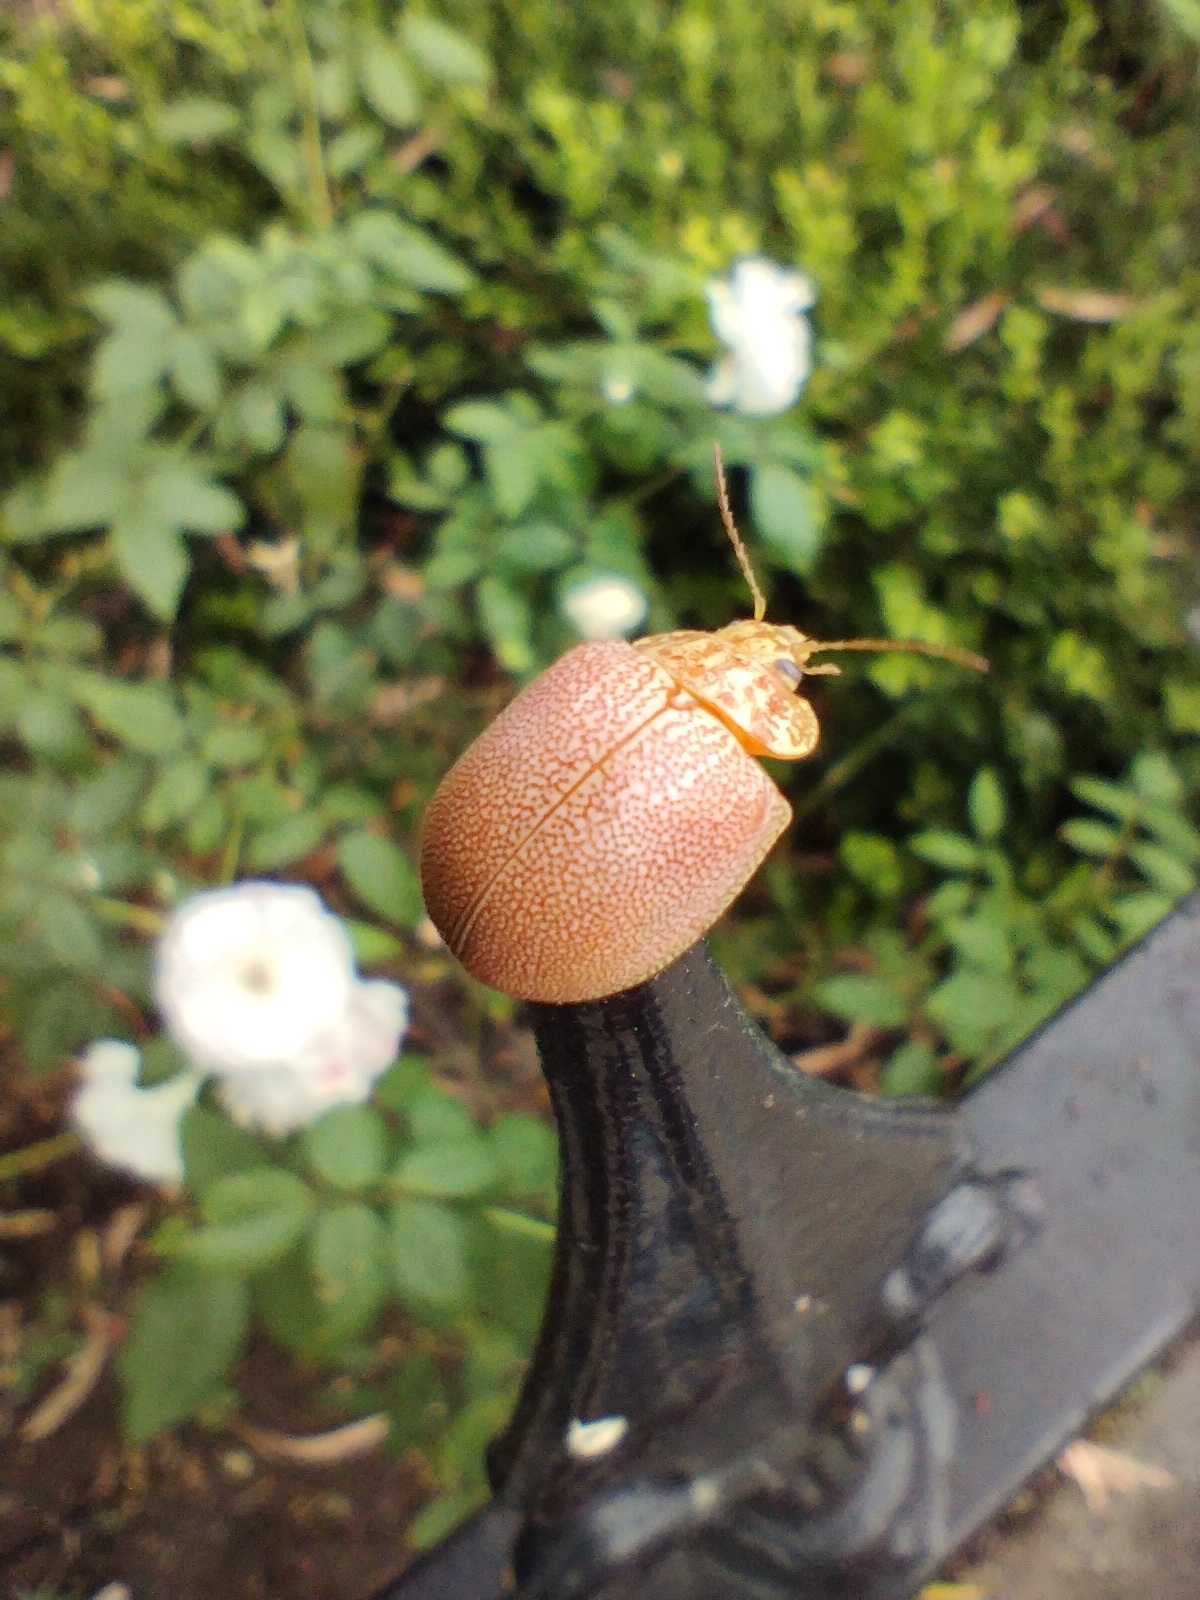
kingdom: Animalia
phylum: Arthropoda
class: Insecta
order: Coleoptera
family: Chrysomelidae
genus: Paropsis
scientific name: Paropsis
